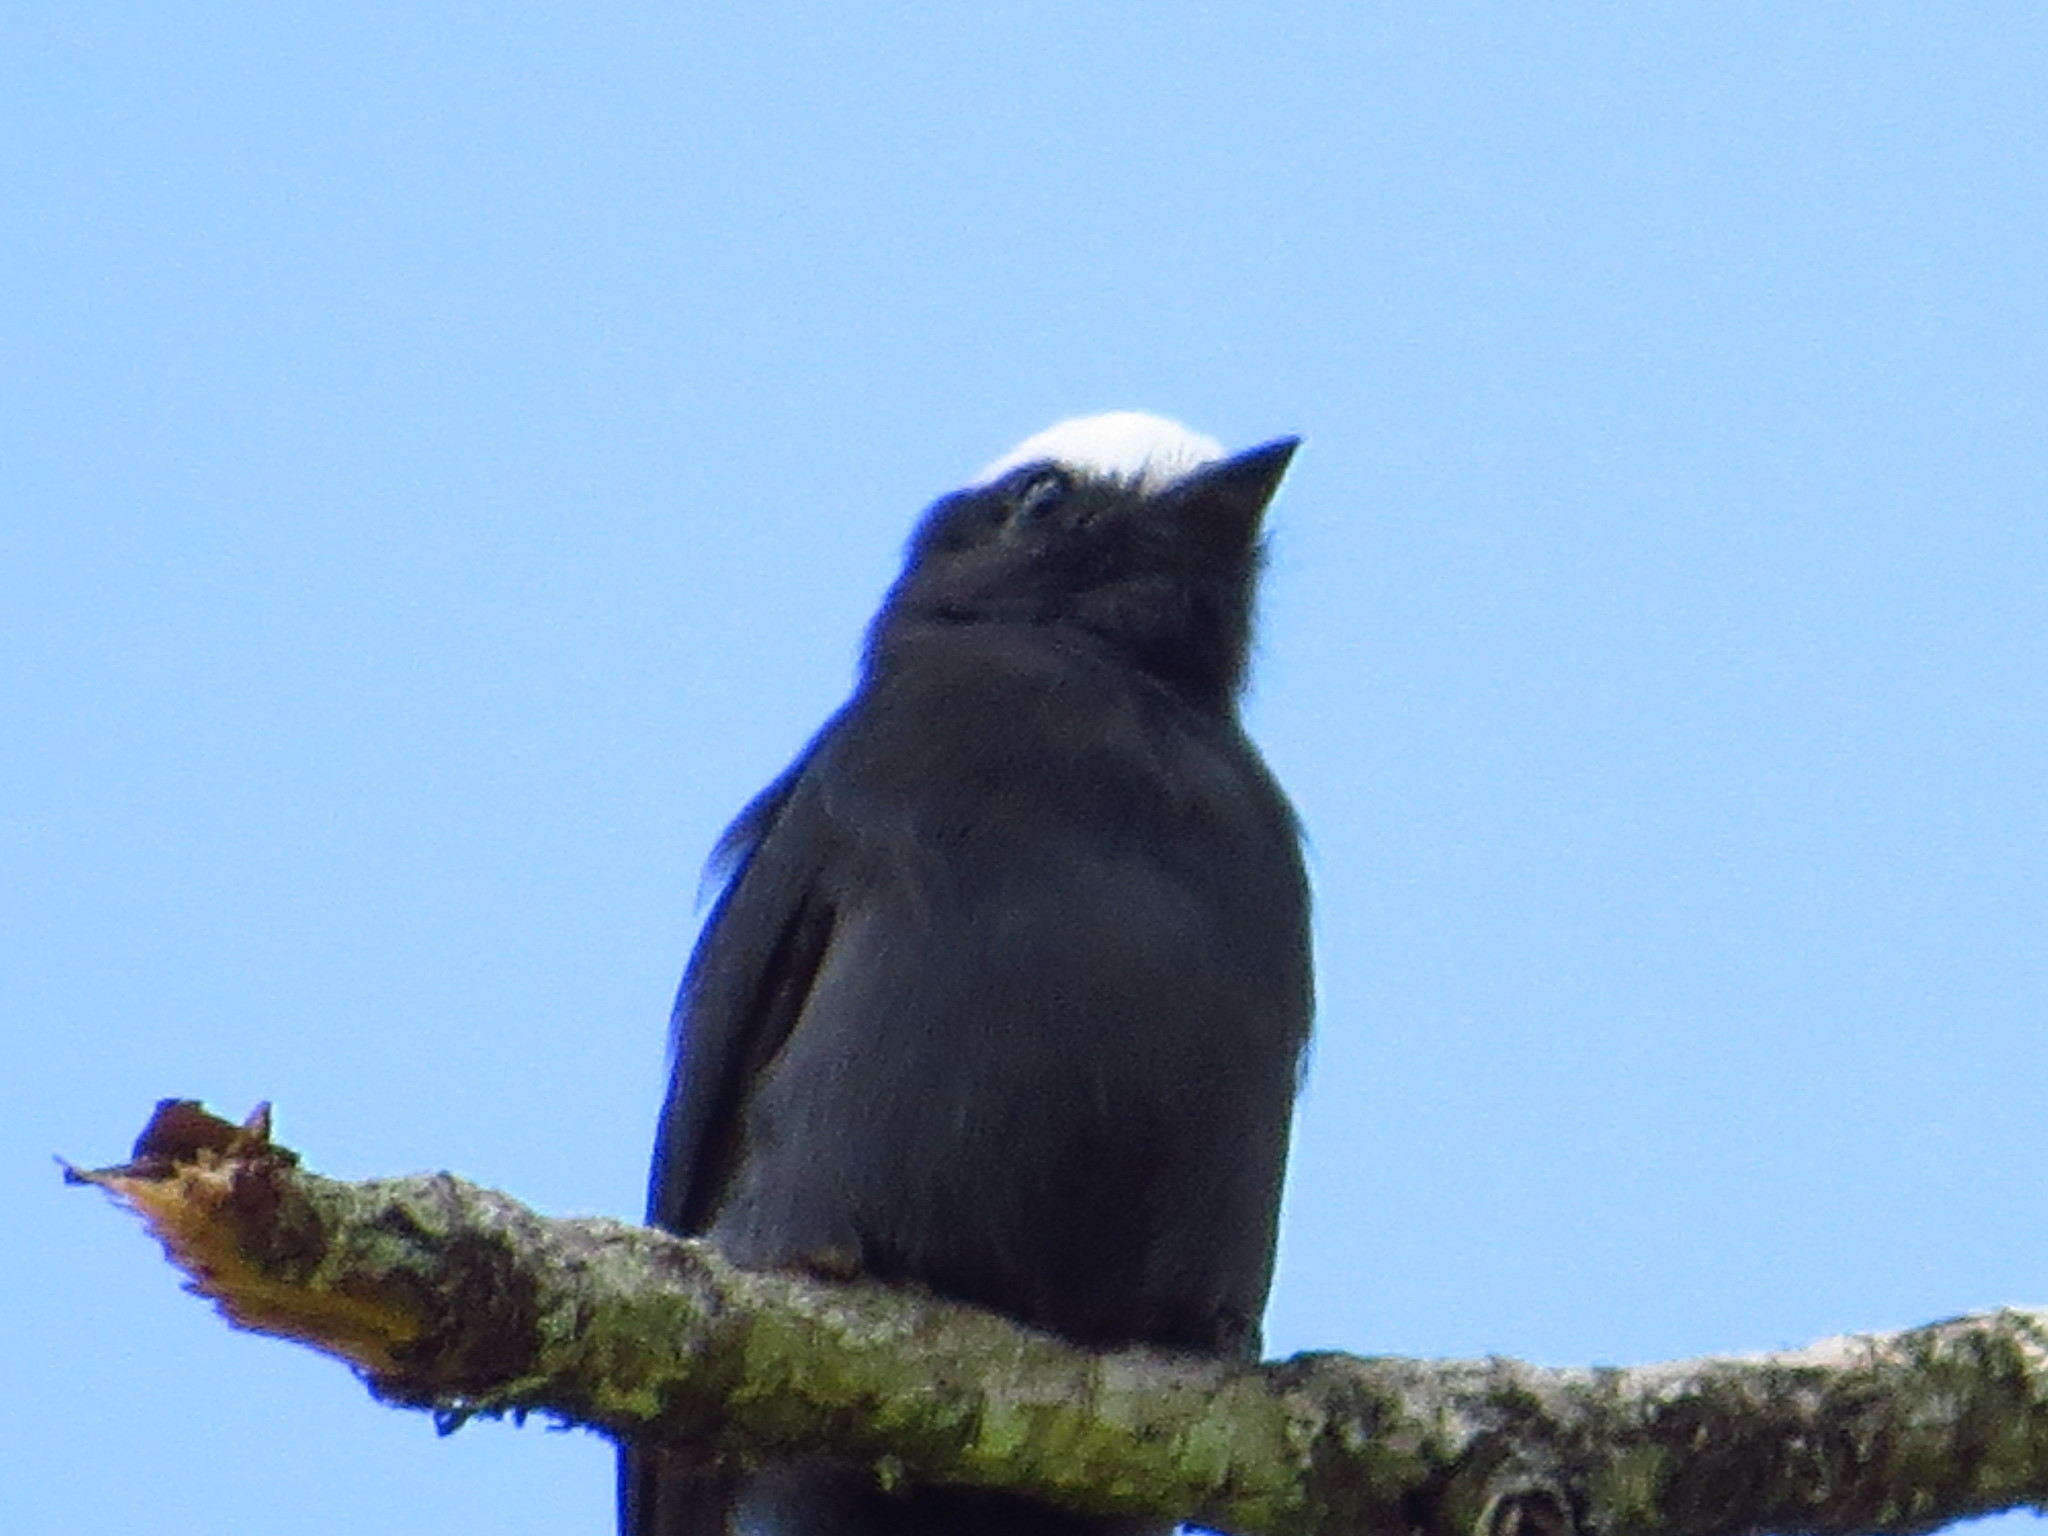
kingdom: Animalia
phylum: Chordata
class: Aves
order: Passeriformes
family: Tyrannidae
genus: Colonia
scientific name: Colonia colonus
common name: Long-tailed tyrant
